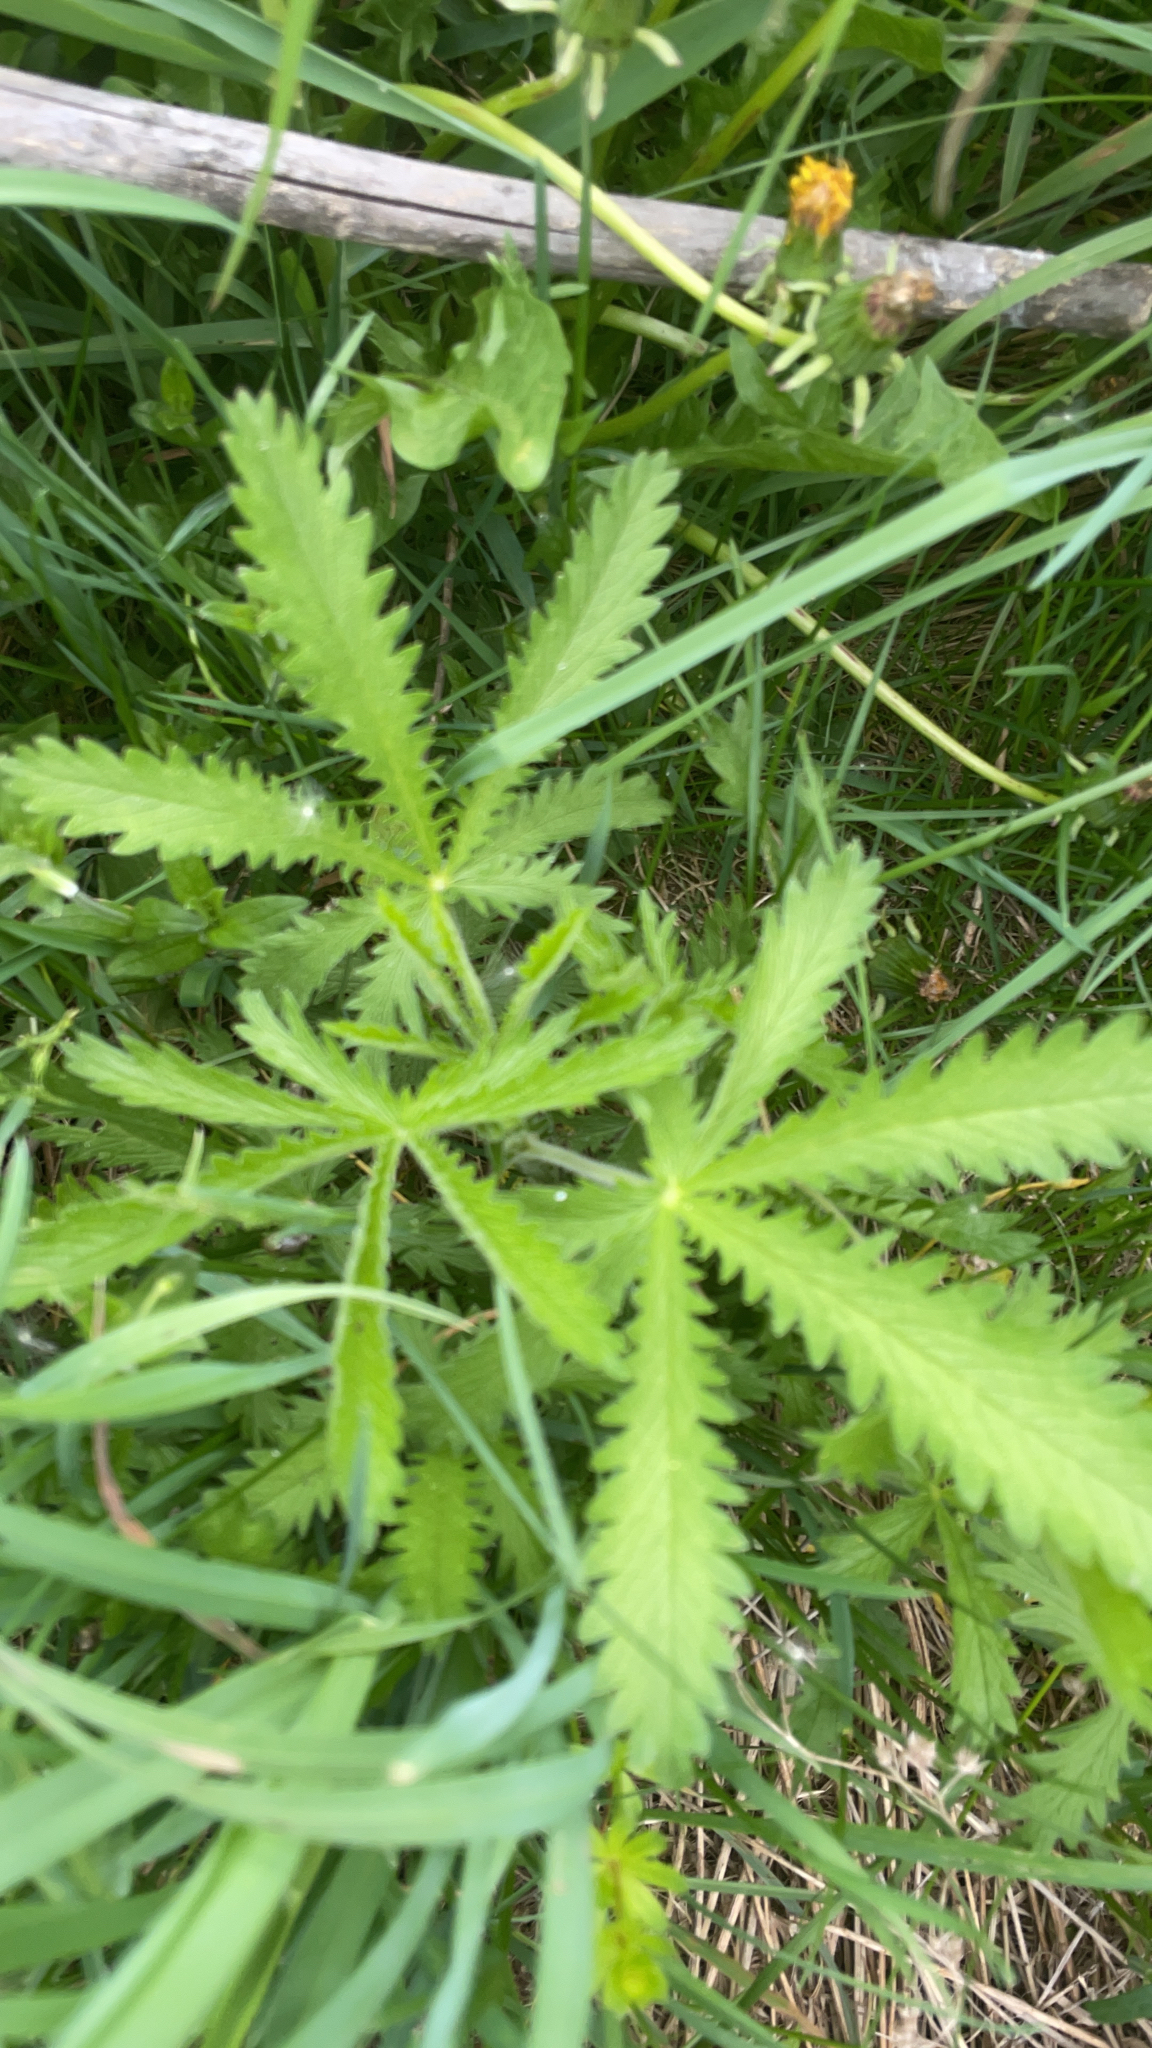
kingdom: Plantae
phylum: Tracheophyta
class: Magnoliopsida
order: Rosales
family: Rosaceae
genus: Potentilla
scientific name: Potentilla recta
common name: Sulphur cinquefoil
